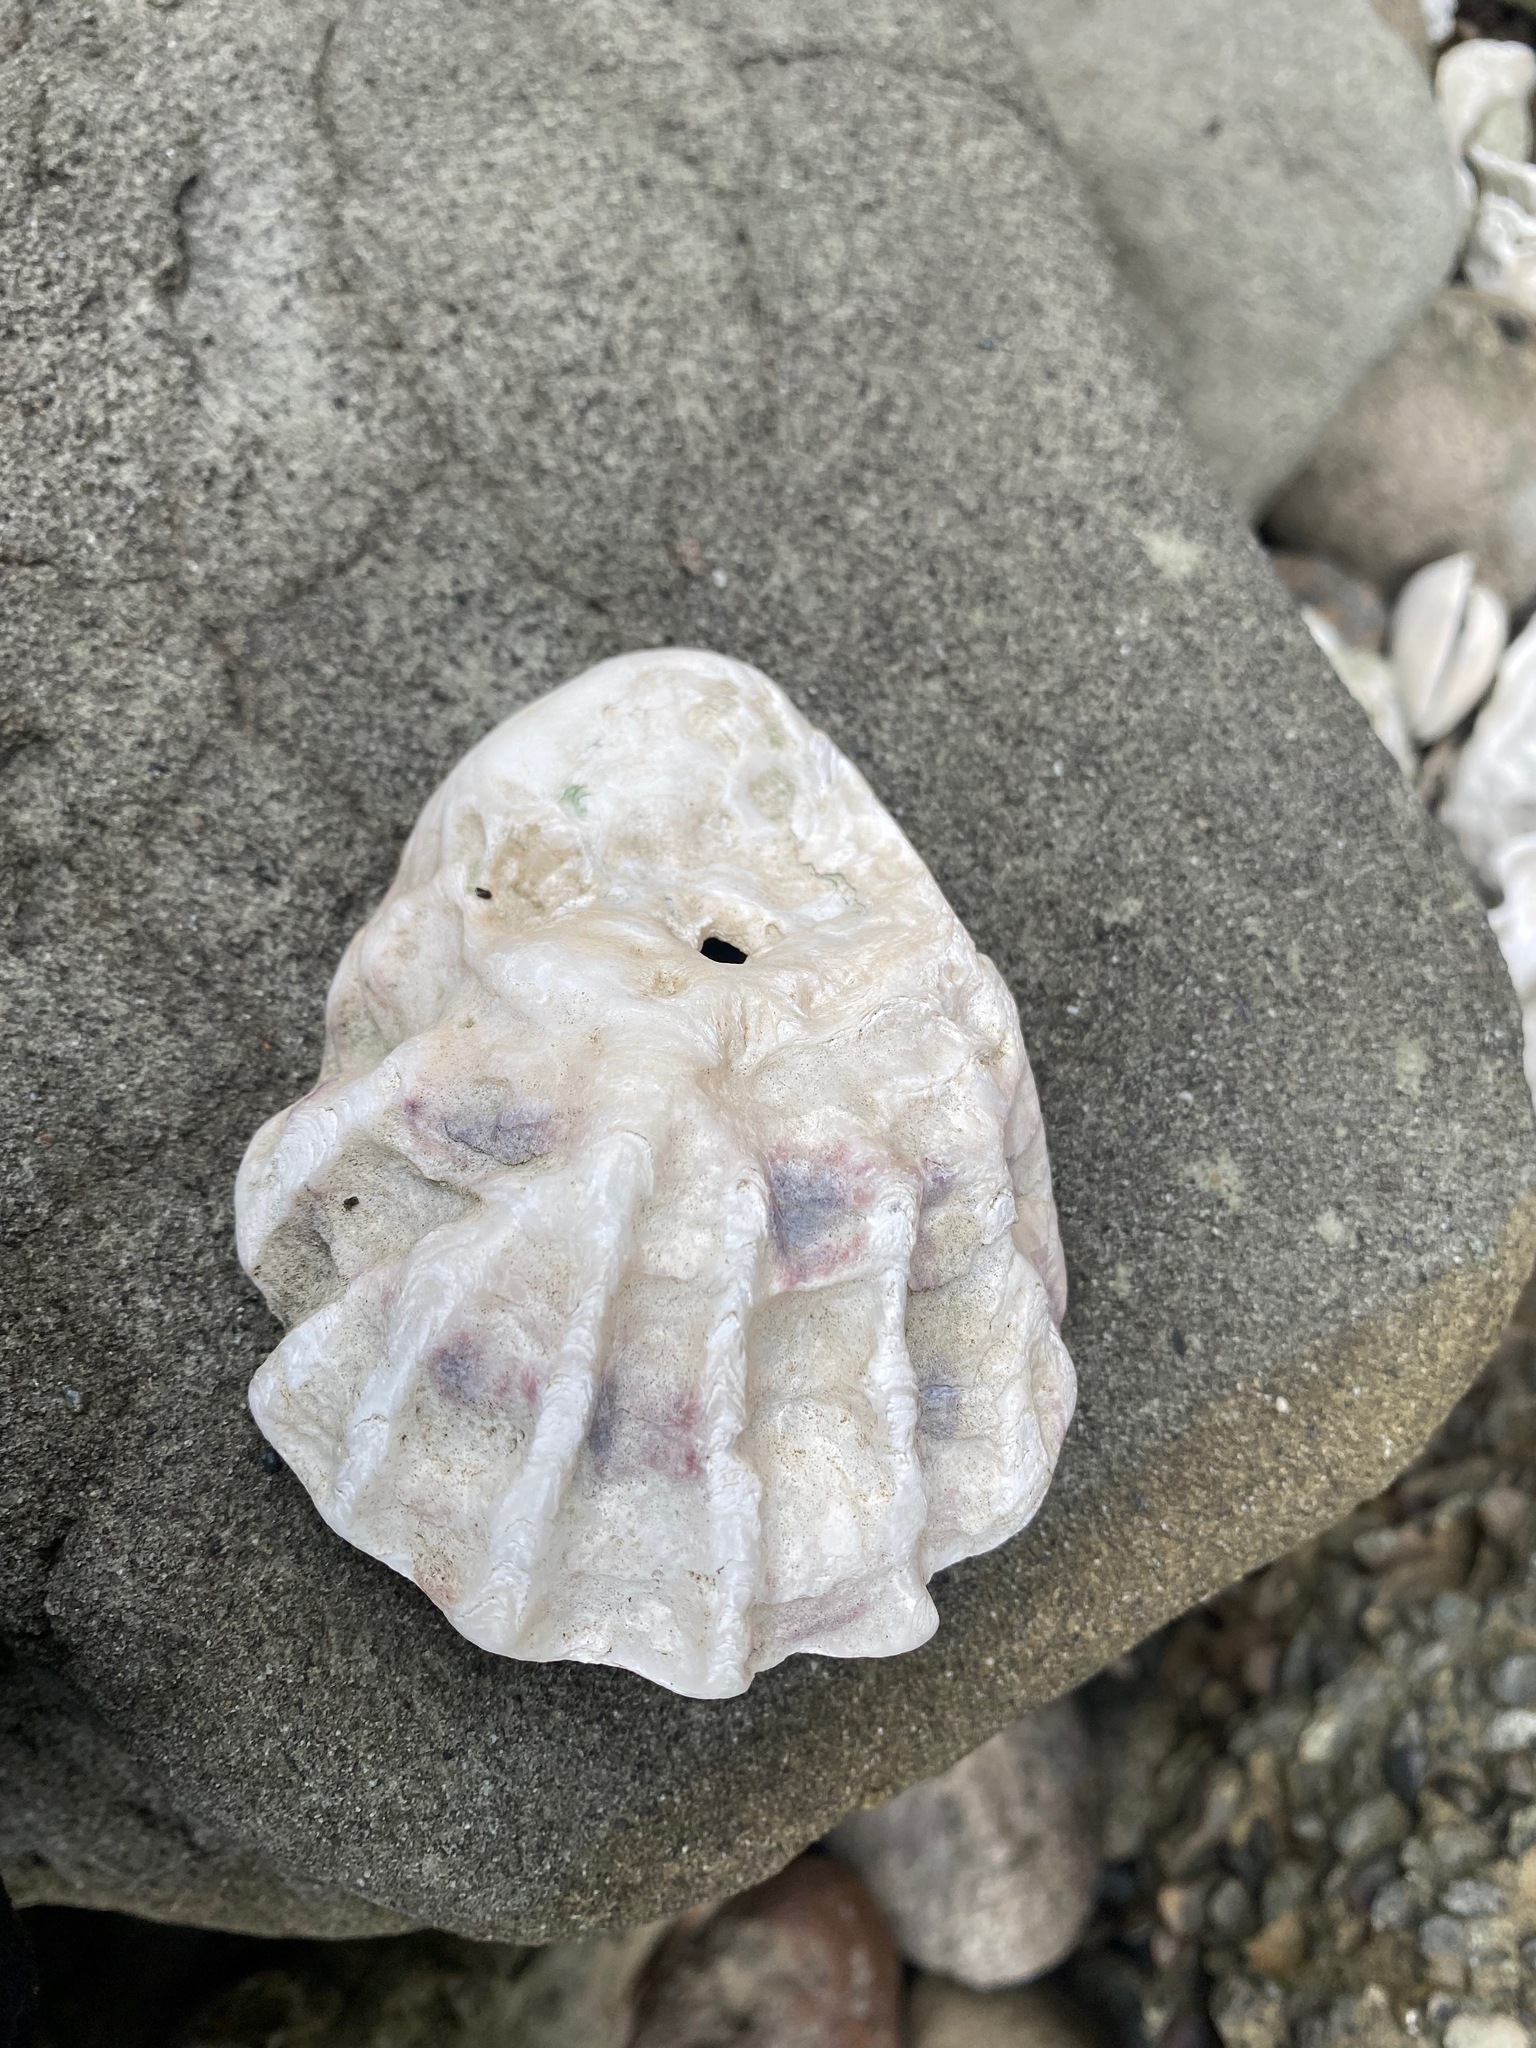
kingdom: Animalia
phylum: Mollusca
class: Bivalvia
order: Ostreida
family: Ostreidae
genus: Magallana
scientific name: Magallana gigas
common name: Pacific oyster
